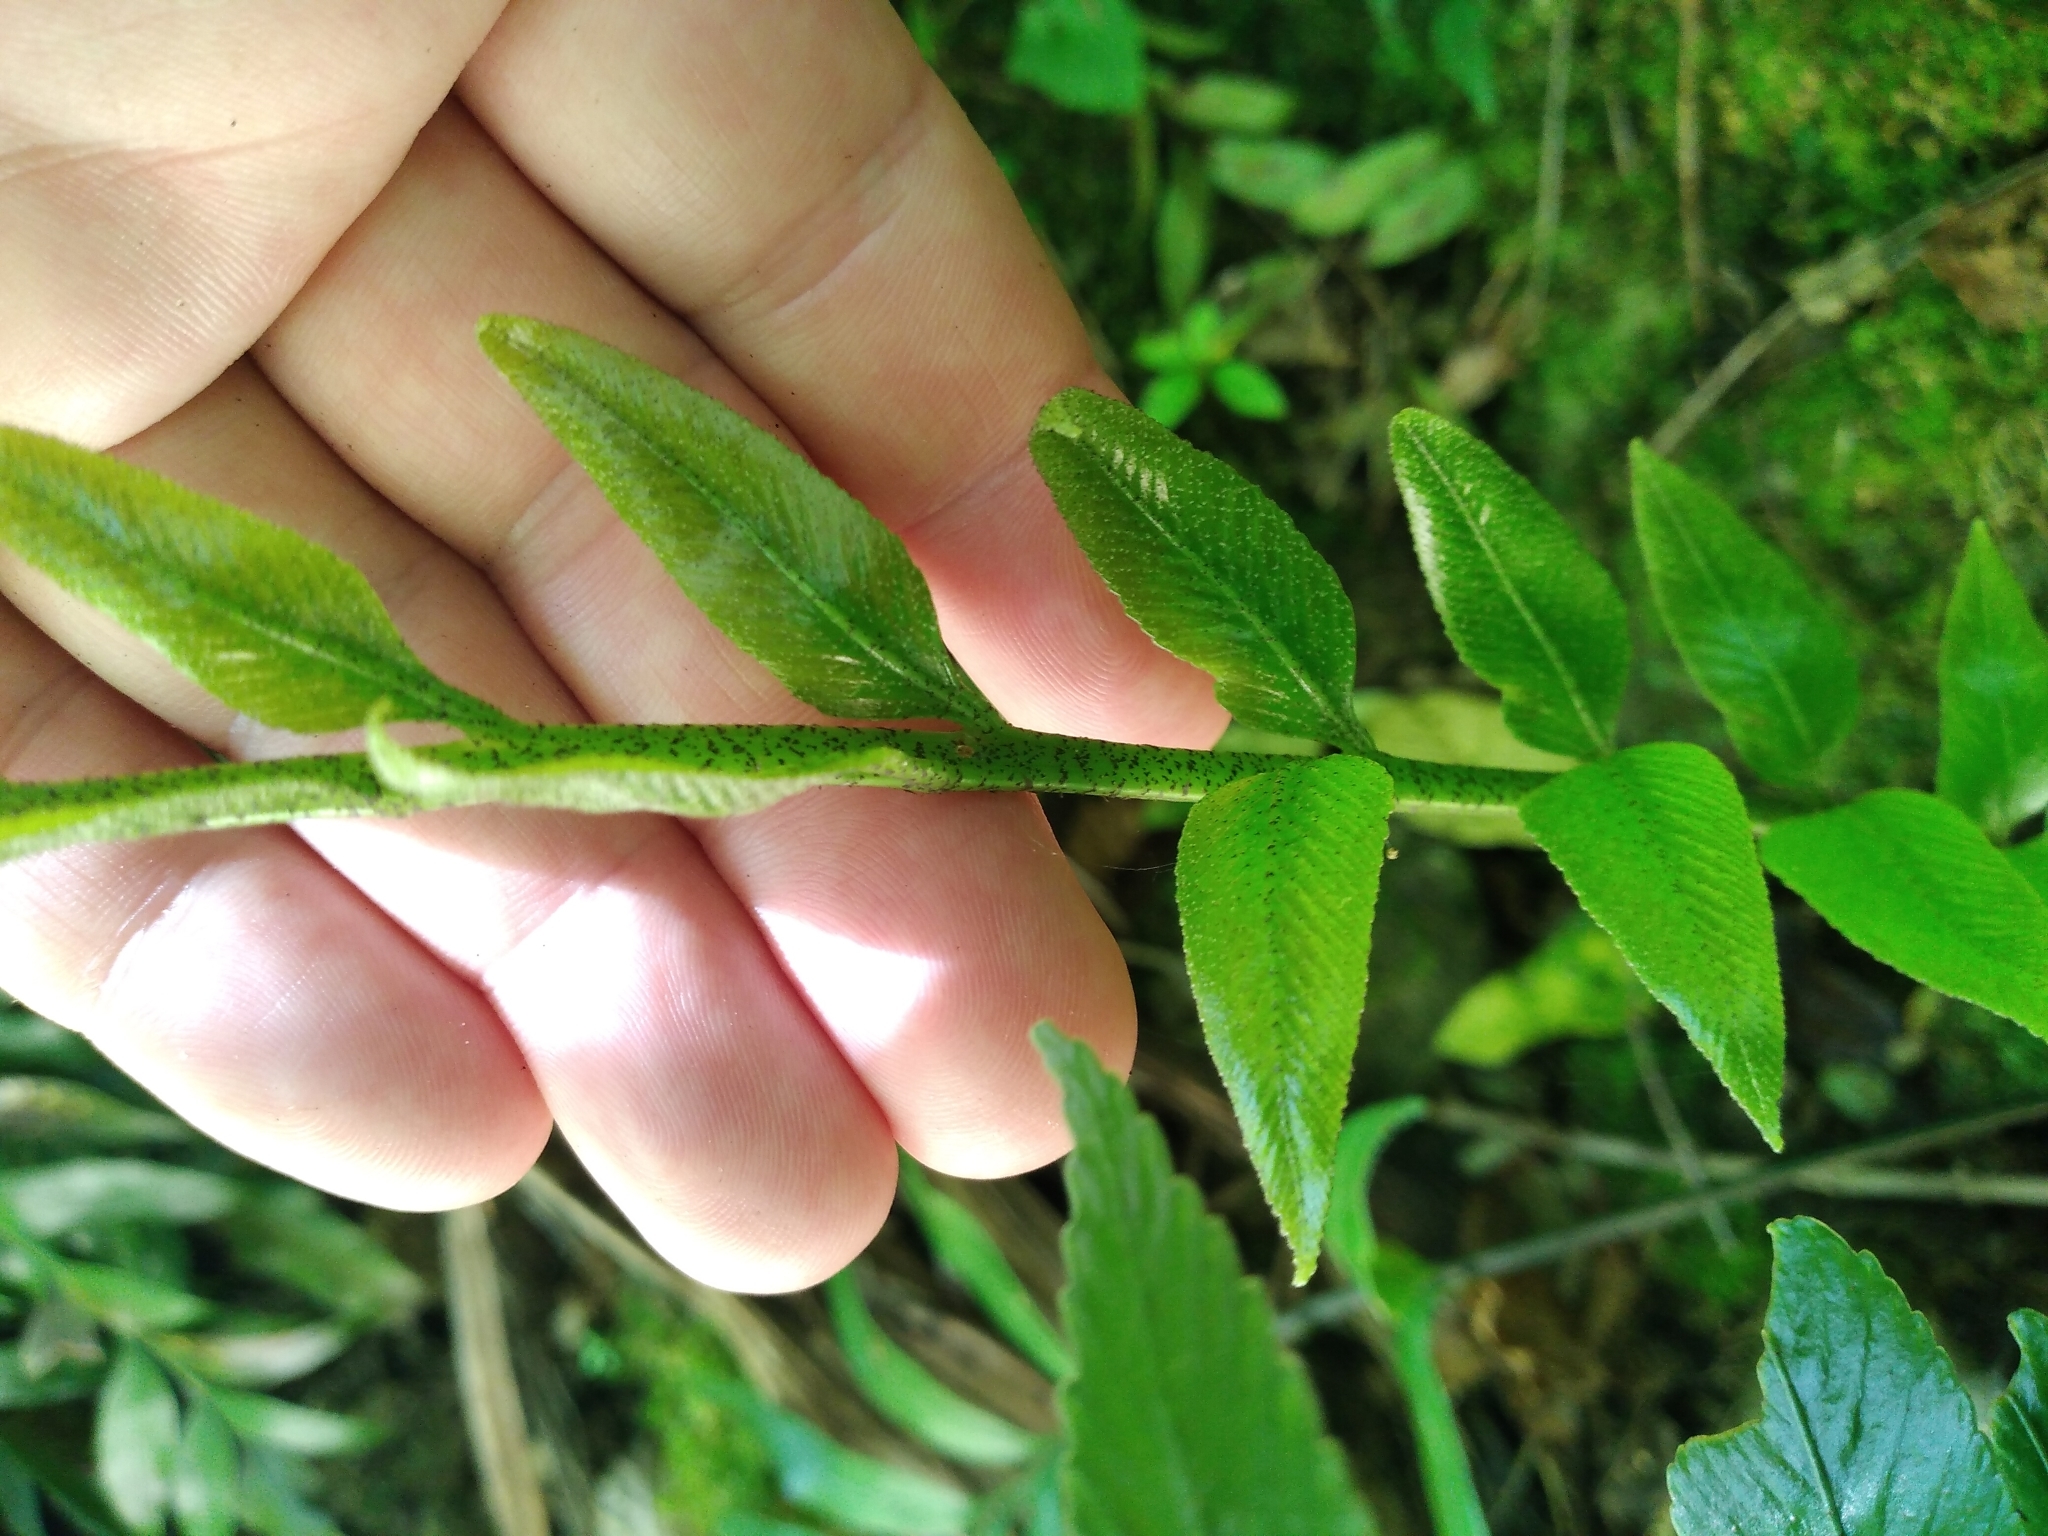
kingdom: Plantae
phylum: Tracheophyta
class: Polypodiopsida
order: Polypodiales
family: Aspleniaceae
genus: Asplenium
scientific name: Asplenium lepidotum
